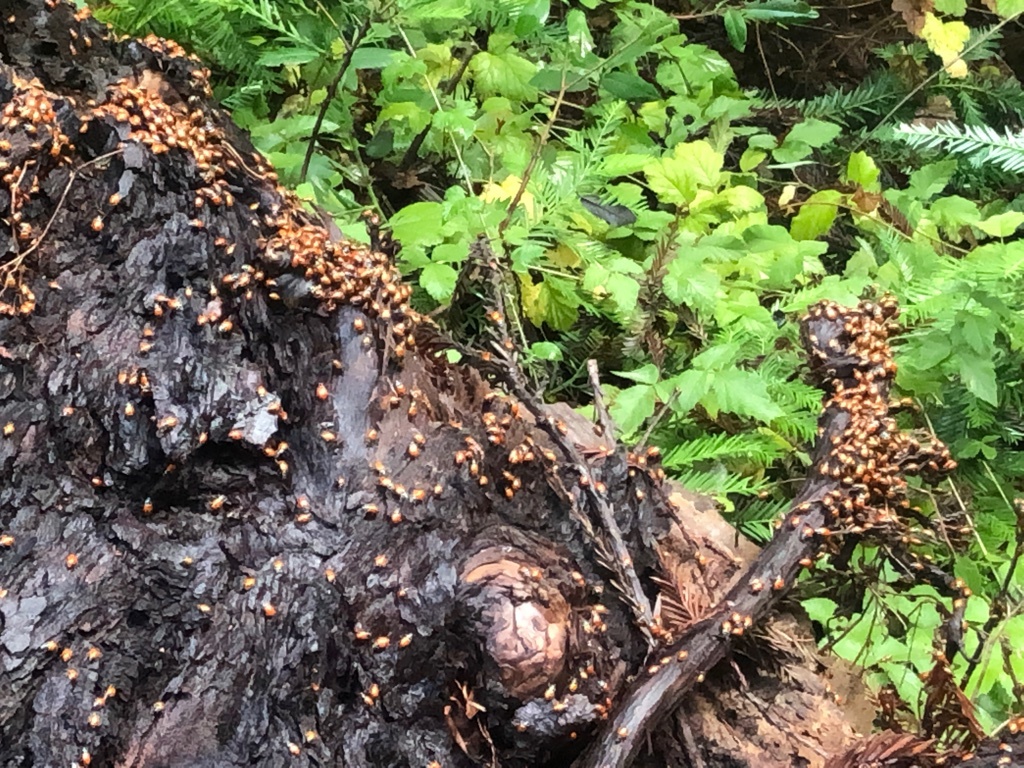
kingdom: Animalia
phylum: Arthropoda
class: Insecta
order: Coleoptera
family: Coccinellidae
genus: Hippodamia
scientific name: Hippodamia convergens
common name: Convergent lady beetle
